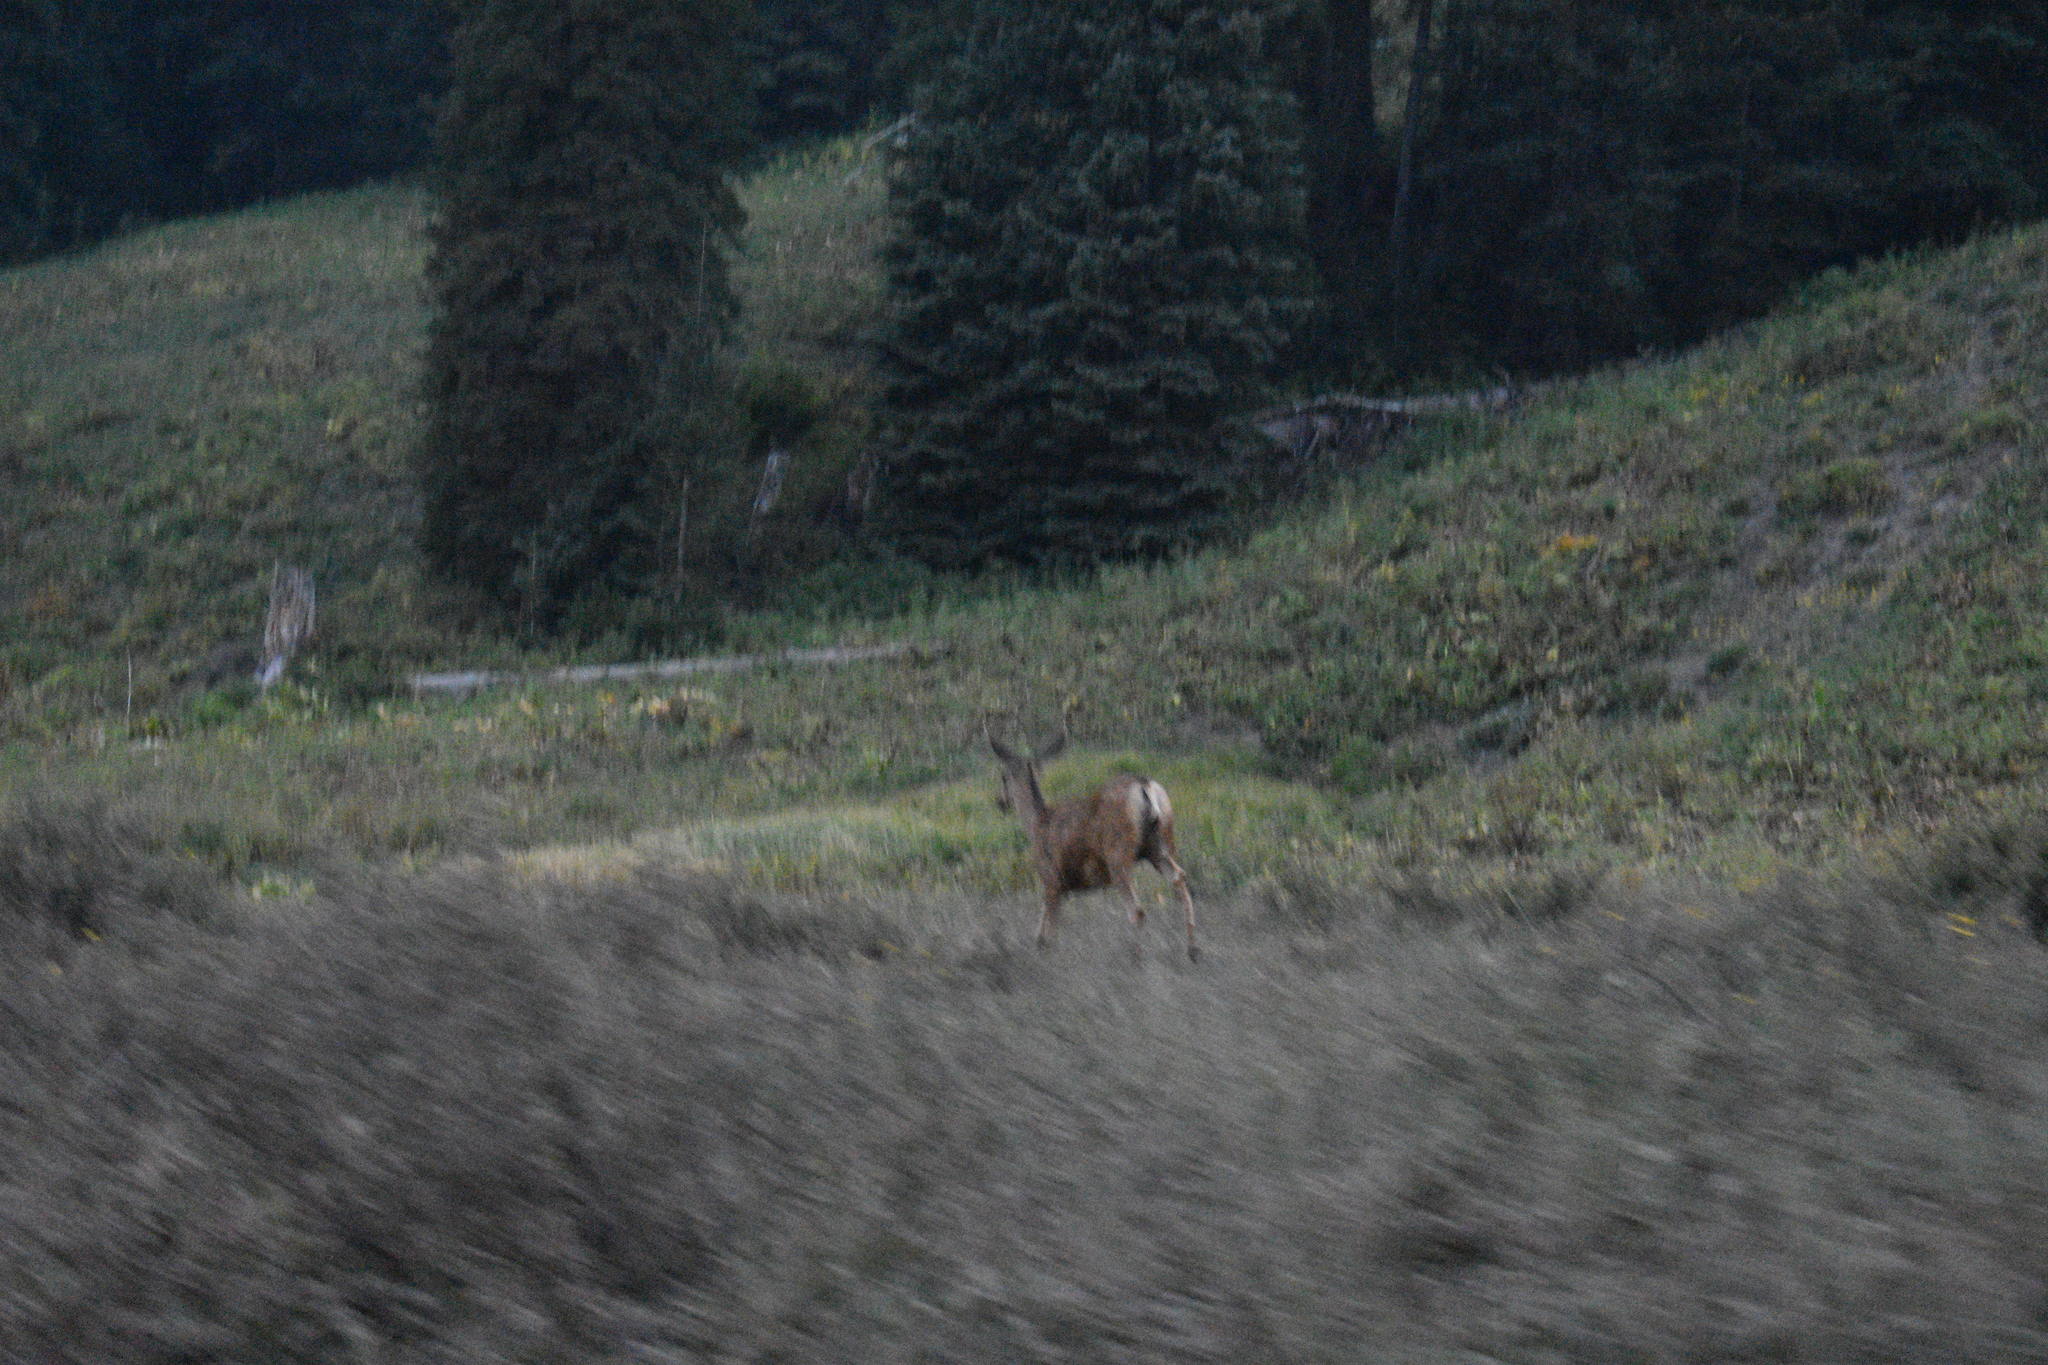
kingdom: Animalia
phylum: Chordata
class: Mammalia
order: Artiodactyla
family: Cervidae
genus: Odocoileus
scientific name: Odocoileus hemionus
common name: Mule deer
